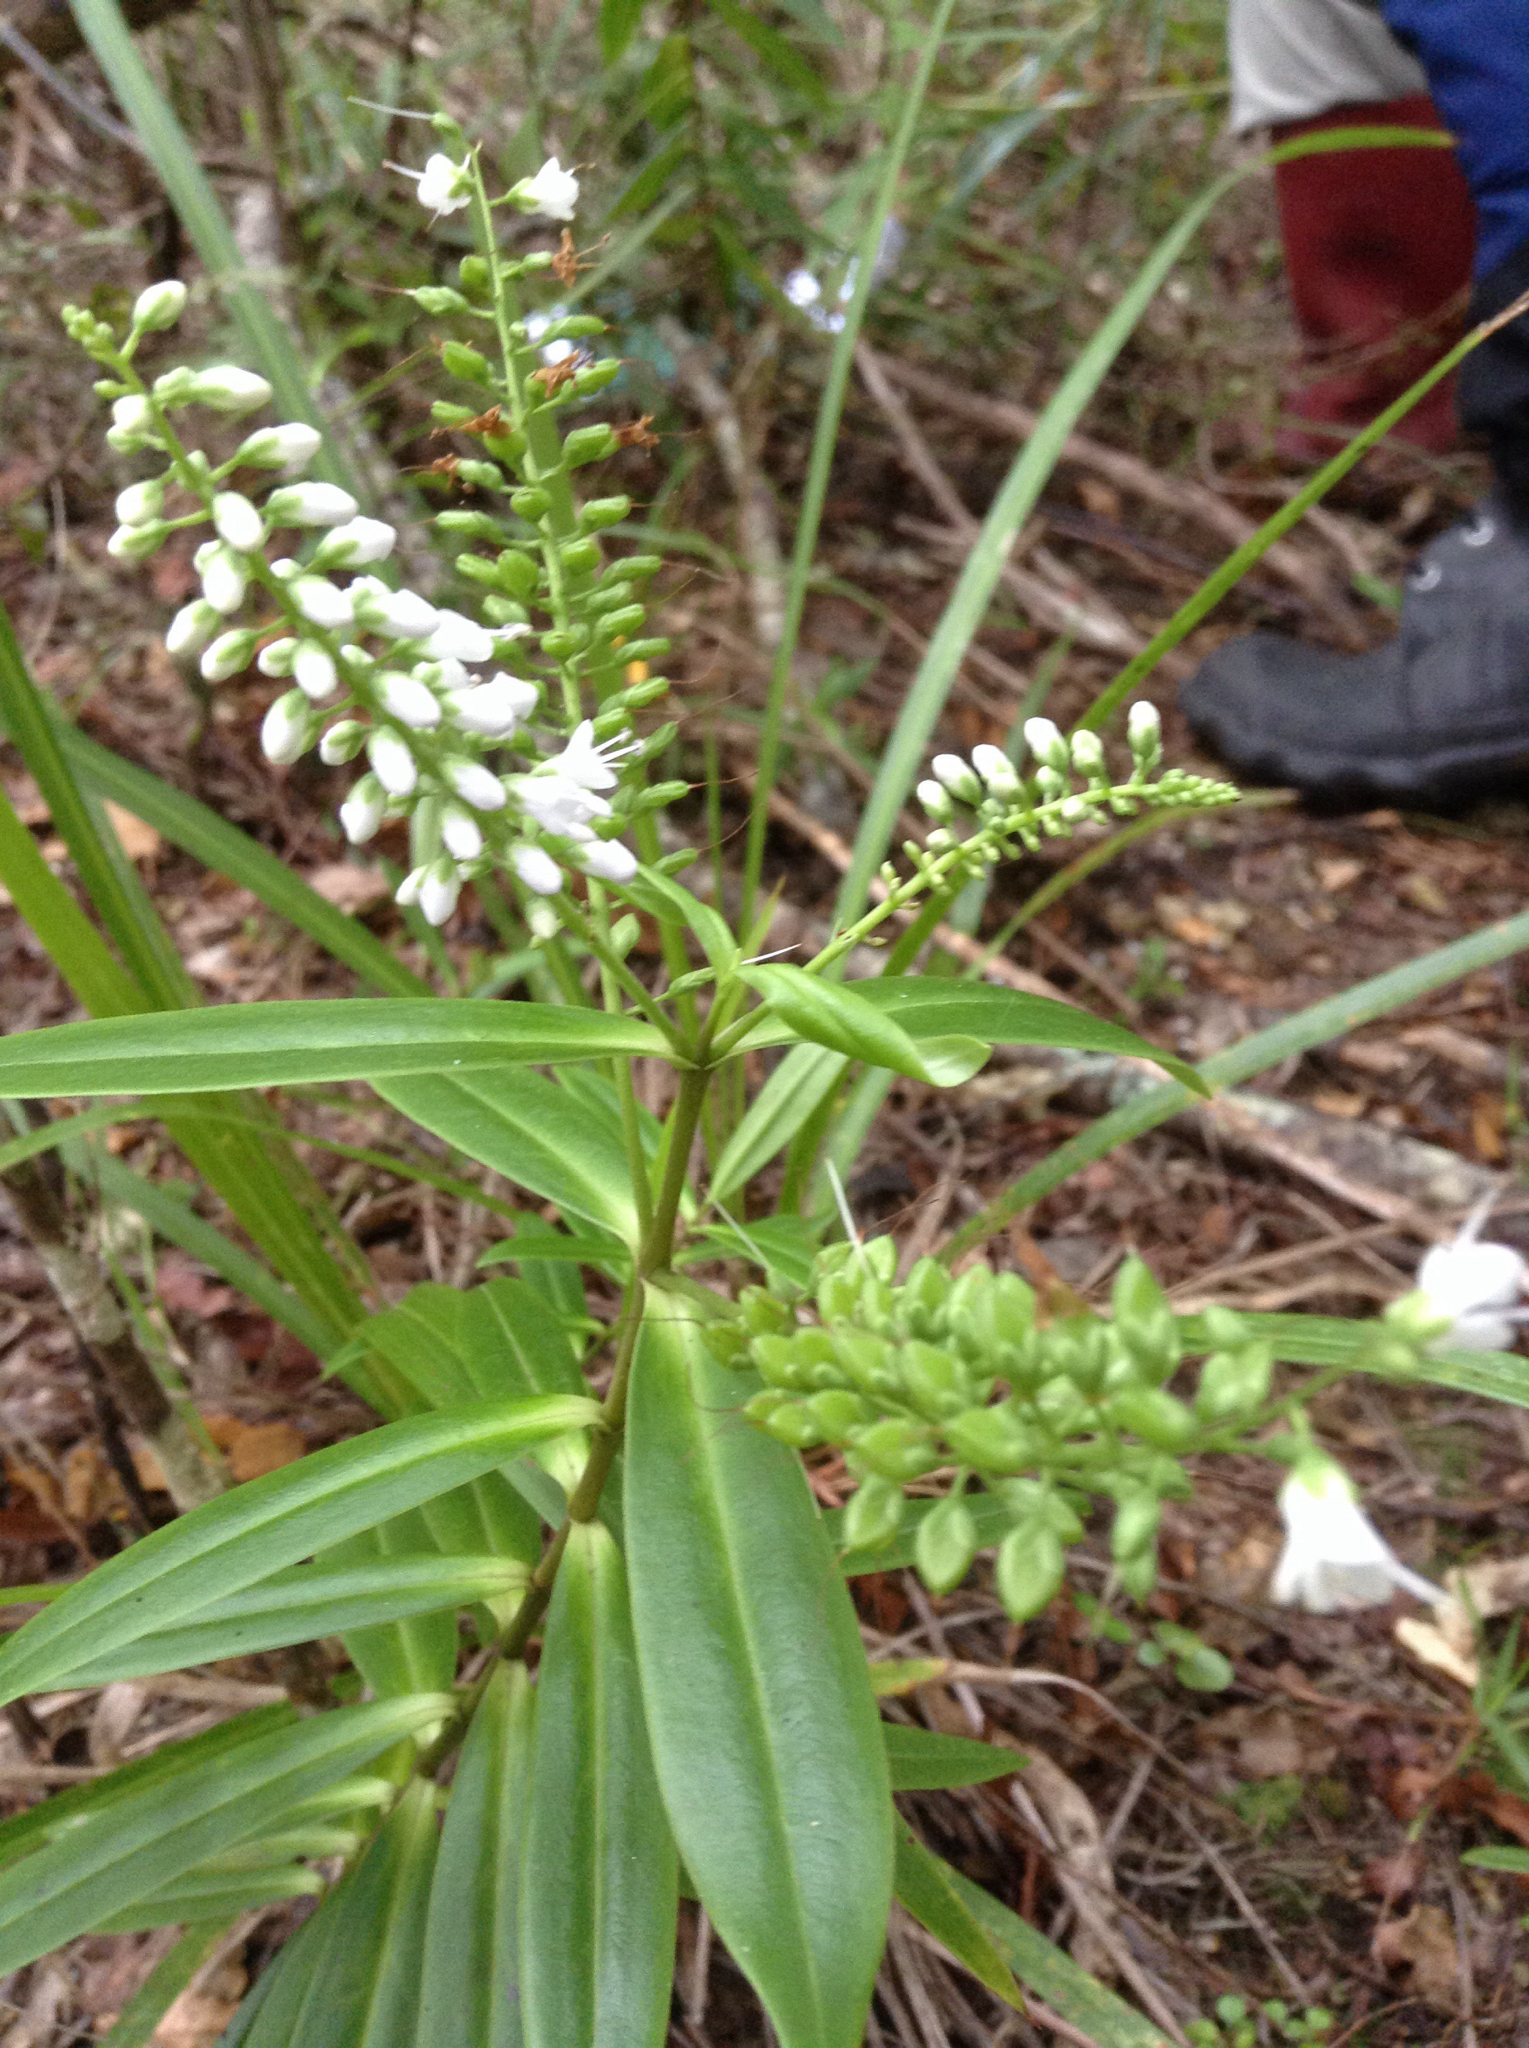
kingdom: Plantae
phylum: Tracheophyta
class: Magnoliopsida
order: Lamiales
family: Plantaginaceae
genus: Veronica
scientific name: Veronica macrocarpa
